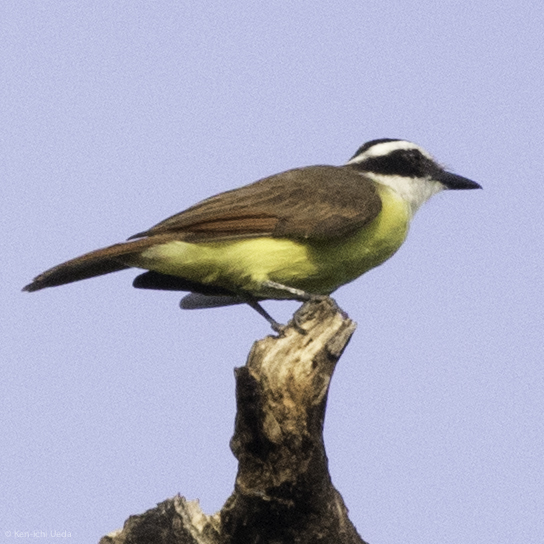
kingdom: Animalia
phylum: Chordata
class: Aves
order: Passeriformes
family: Tyrannidae
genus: Pitangus
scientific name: Pitangus sulphuratus
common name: Great kiskadee
